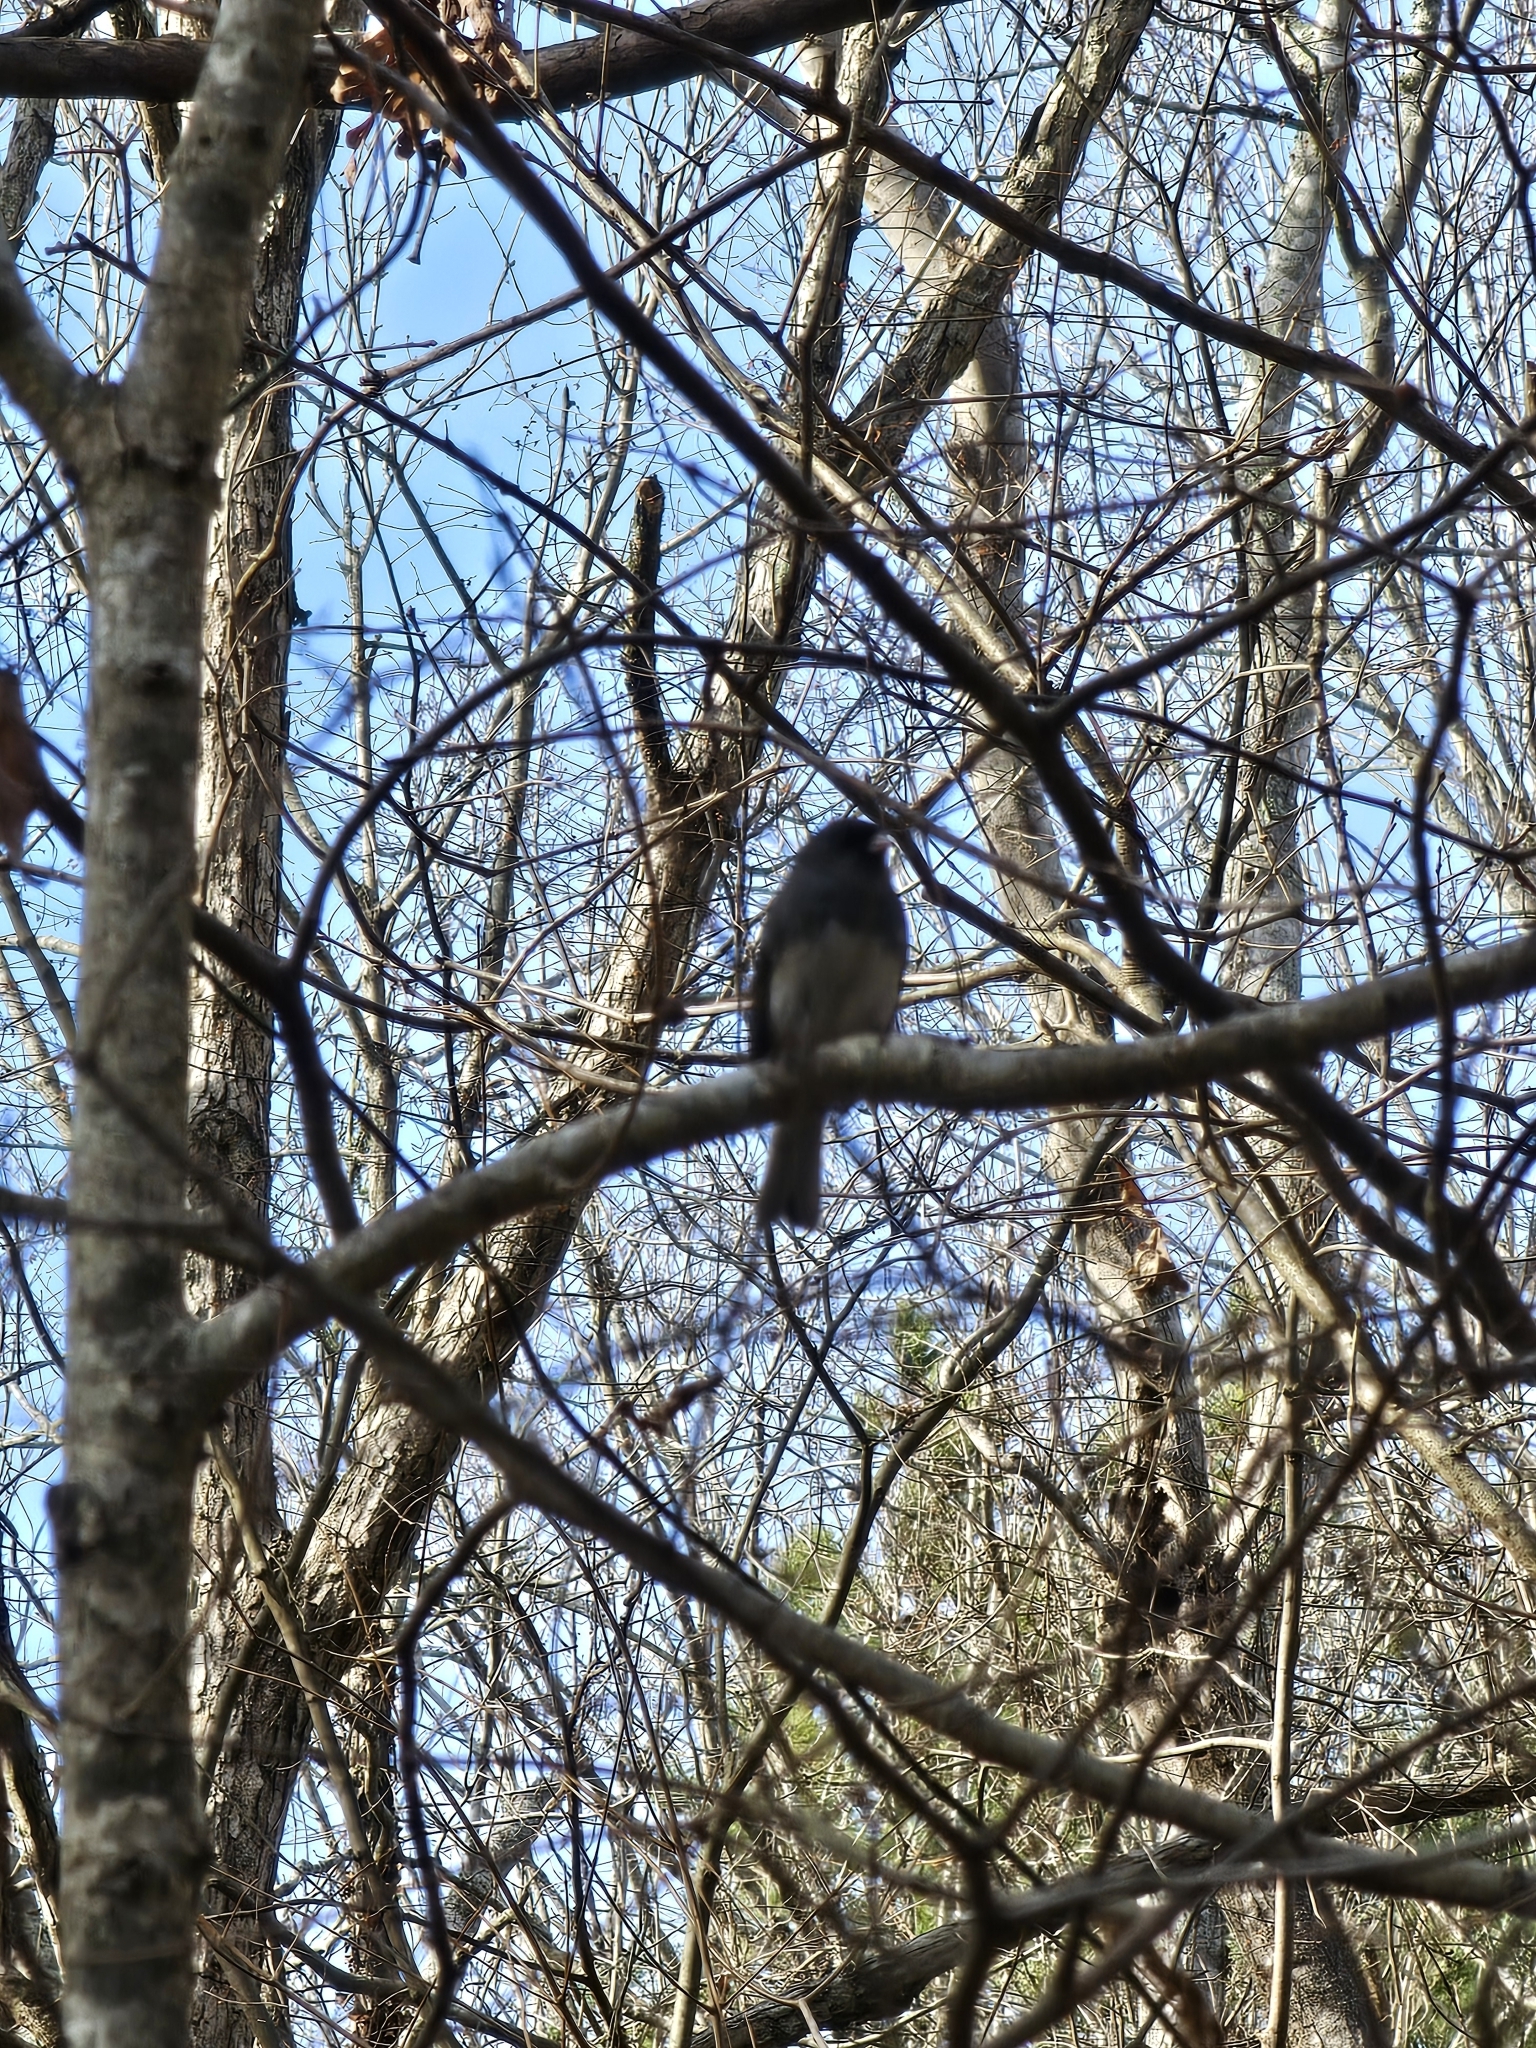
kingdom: Animalia
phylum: Chordata
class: Aves
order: Passeriformes
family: Passerellidae
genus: Junco
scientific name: Junco hyemalis
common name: Dark-eyed junco
